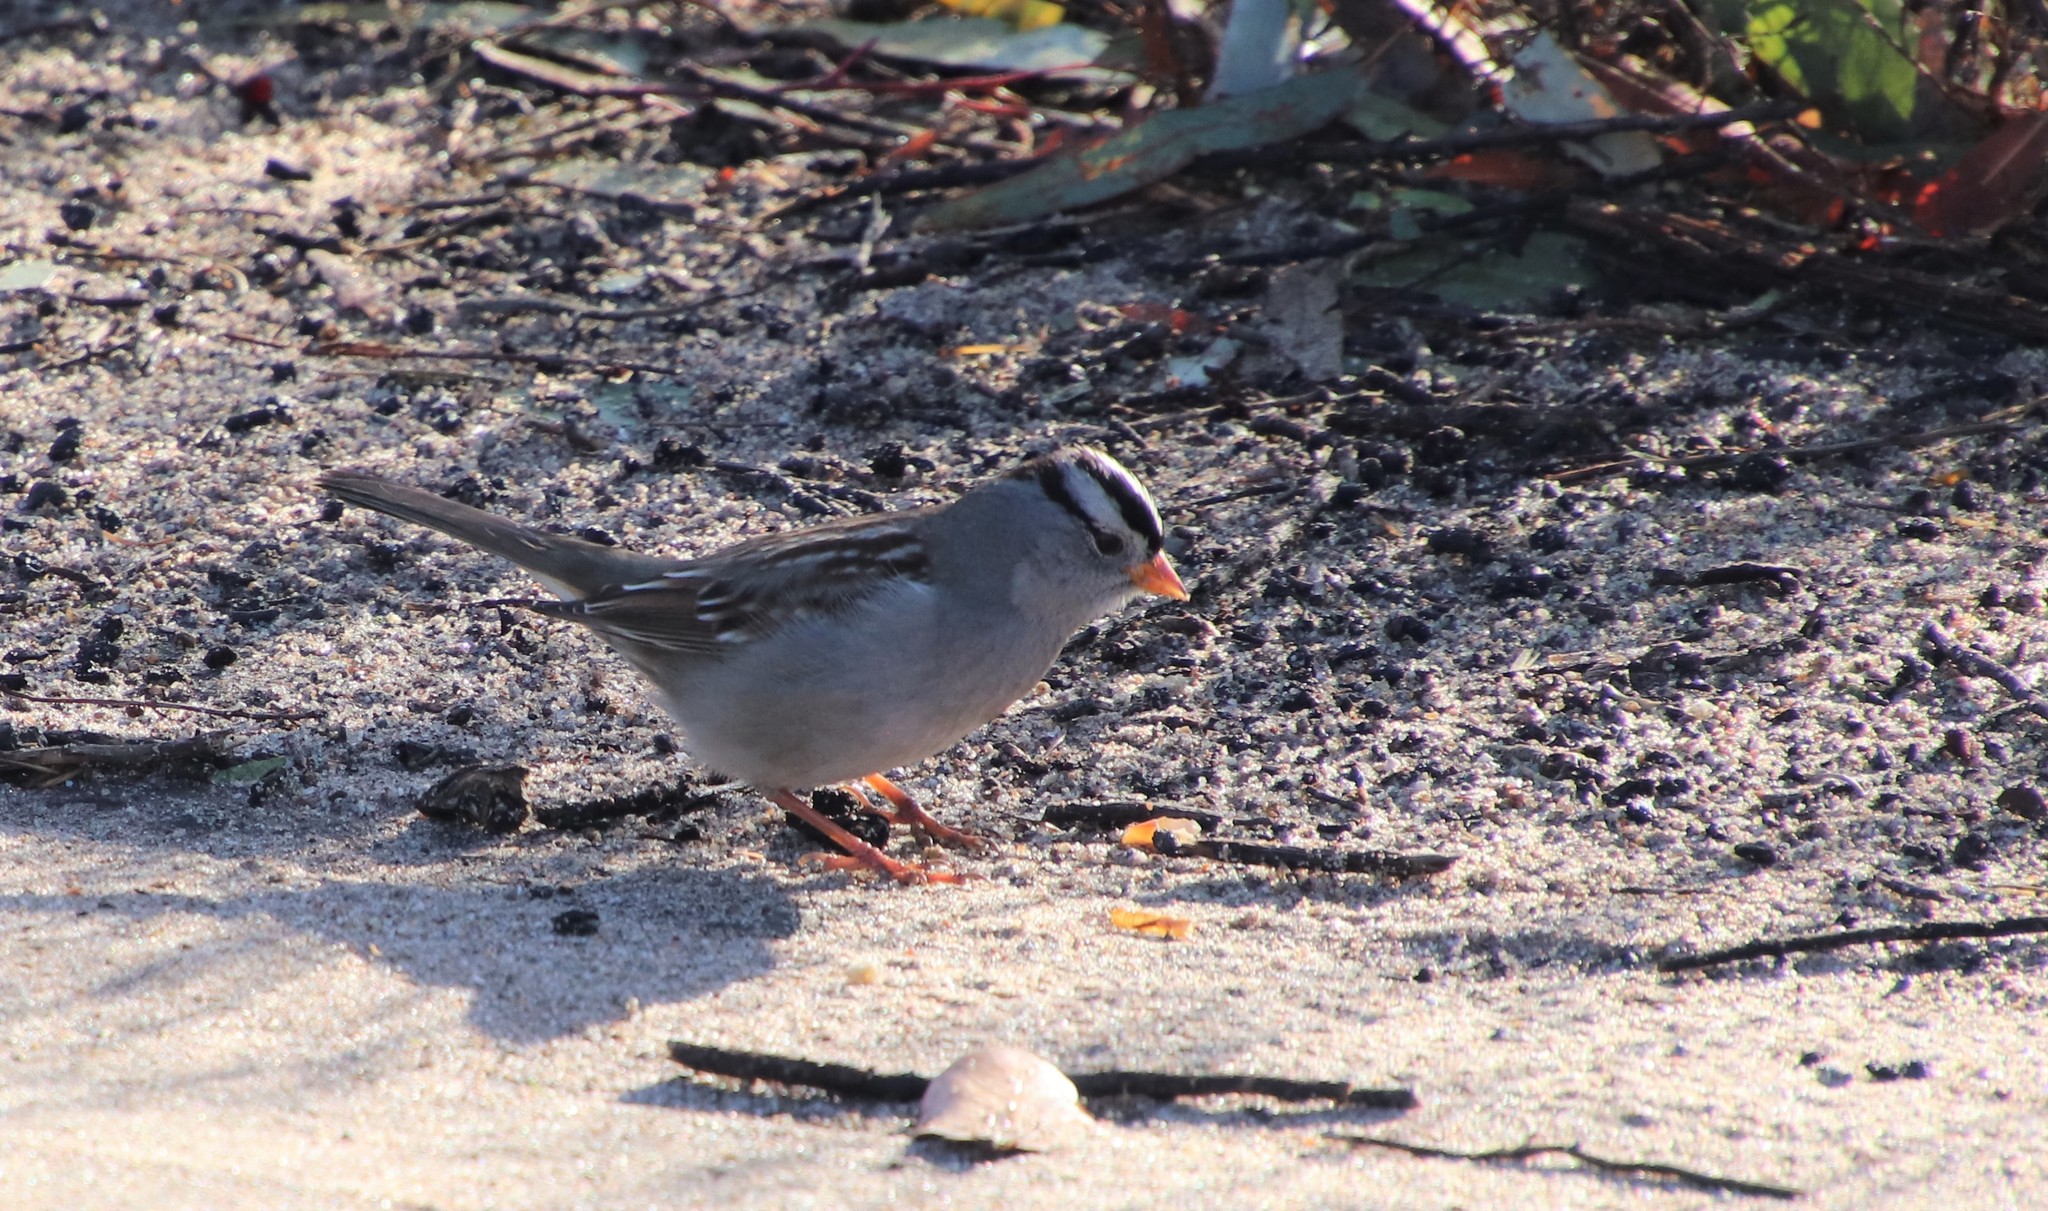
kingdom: Animalia
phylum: Chordata
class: Aves
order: Passeriformes
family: Passerellidae
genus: Zonotrichia
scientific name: Zonotrichia leucophrys
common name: White-crowned sparrow
